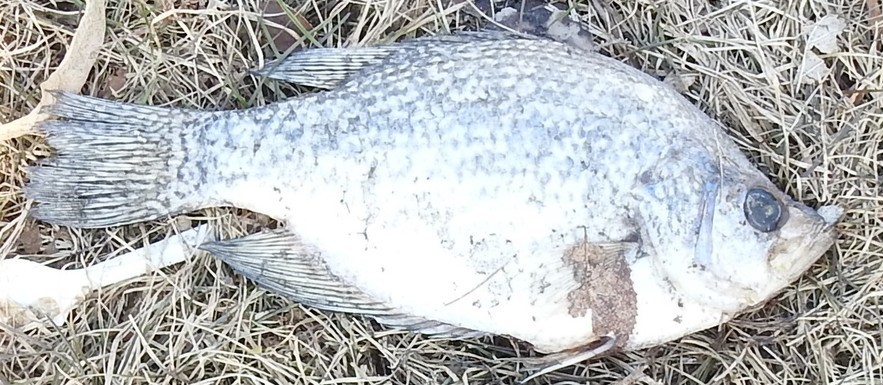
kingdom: Animalia
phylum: Chordata
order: Perciformes
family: Centrarchidae
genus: Pomoxis
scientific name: Pomoxis nigromaculatus
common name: Black crappie
